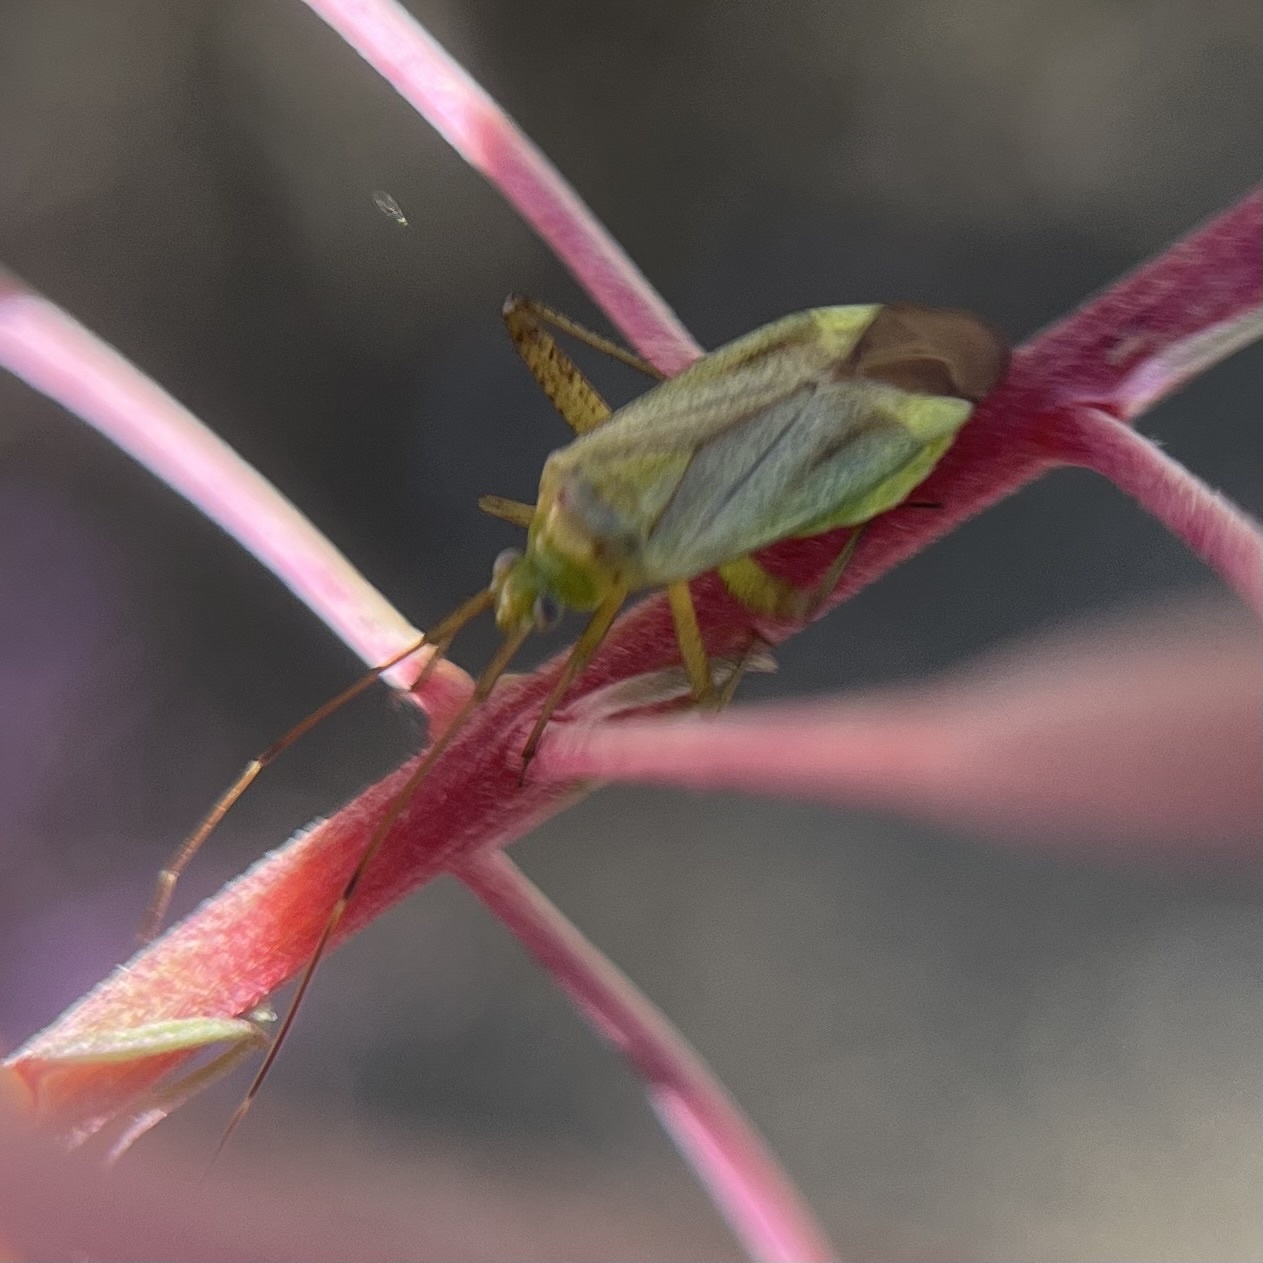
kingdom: Animalia
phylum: Arthropoda
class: Insecta
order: Hemiptera
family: Miridae
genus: Adelphocoris
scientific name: Adelphocoris quadripunctatus
